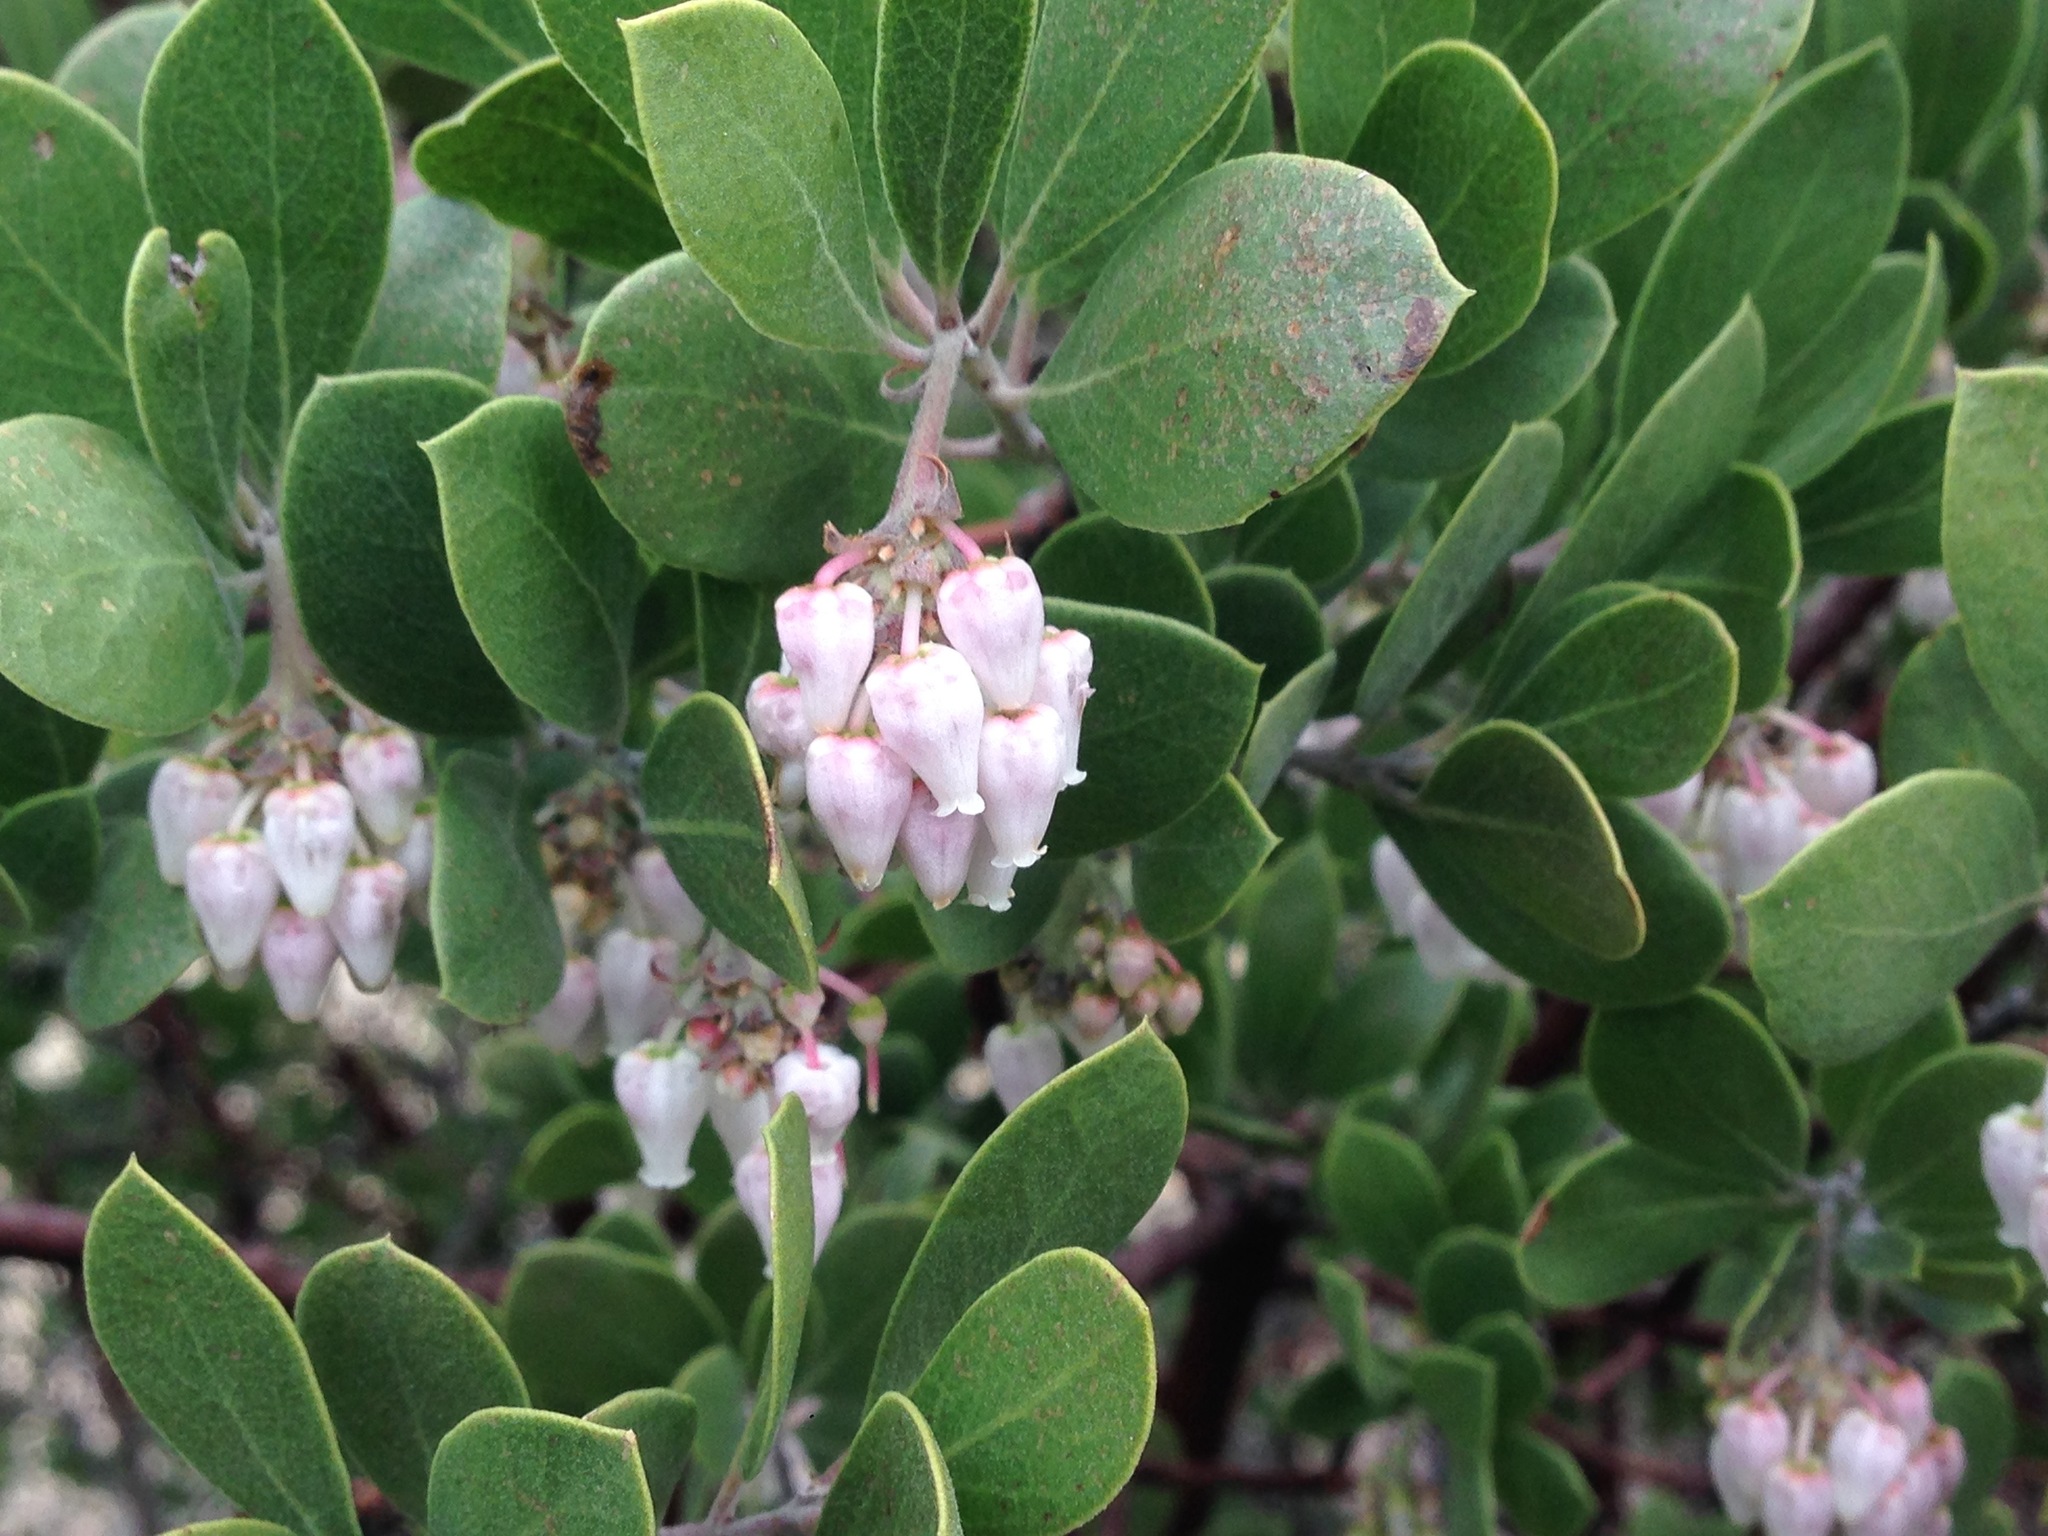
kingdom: Plantae
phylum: Tracheophyta
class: Magnoliopsida
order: Ericales
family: Ericaceae
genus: Arctostaphylos
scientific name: Arctostaphylos pungens
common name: Mexican manzanita
